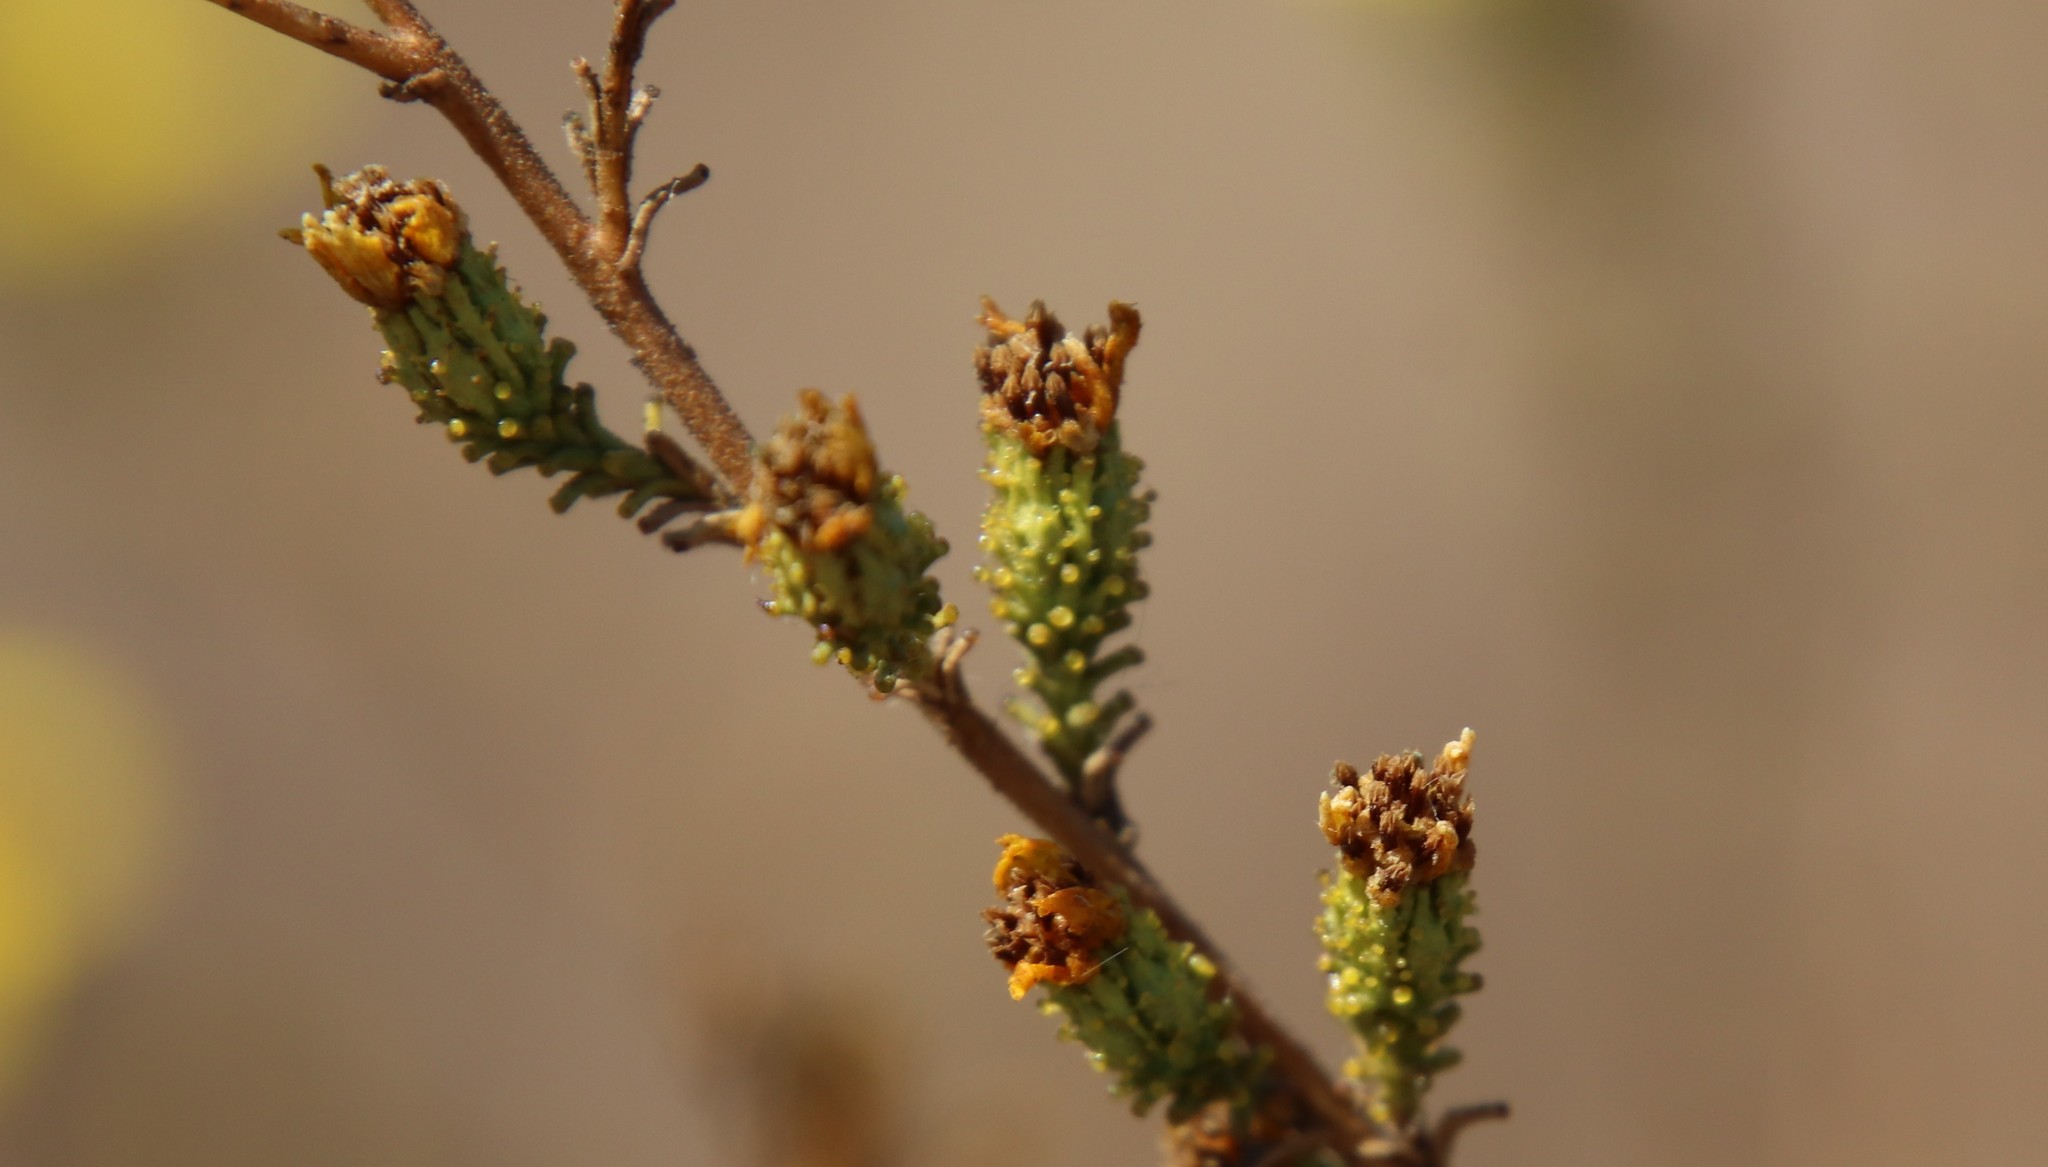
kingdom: Plantae
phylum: Tracheophyta
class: Magnoliopsida
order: Asterales
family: Asteraceae
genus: Holocarpha
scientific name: Holocarpha virgata
